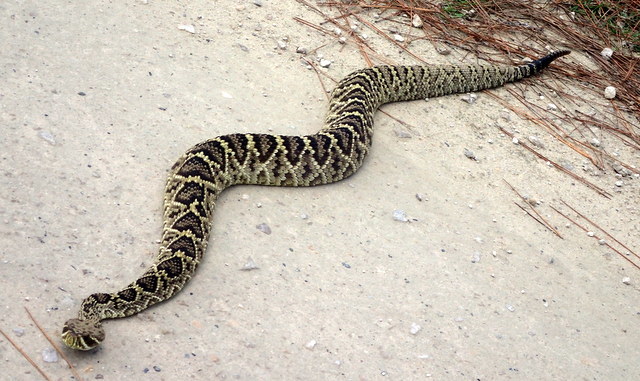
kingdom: Animalia
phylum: Chordata
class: Squamata
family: Viperidae
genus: Crotalus
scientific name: Crotalus adamanteus
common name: Eastern diamondback rattlesnake
